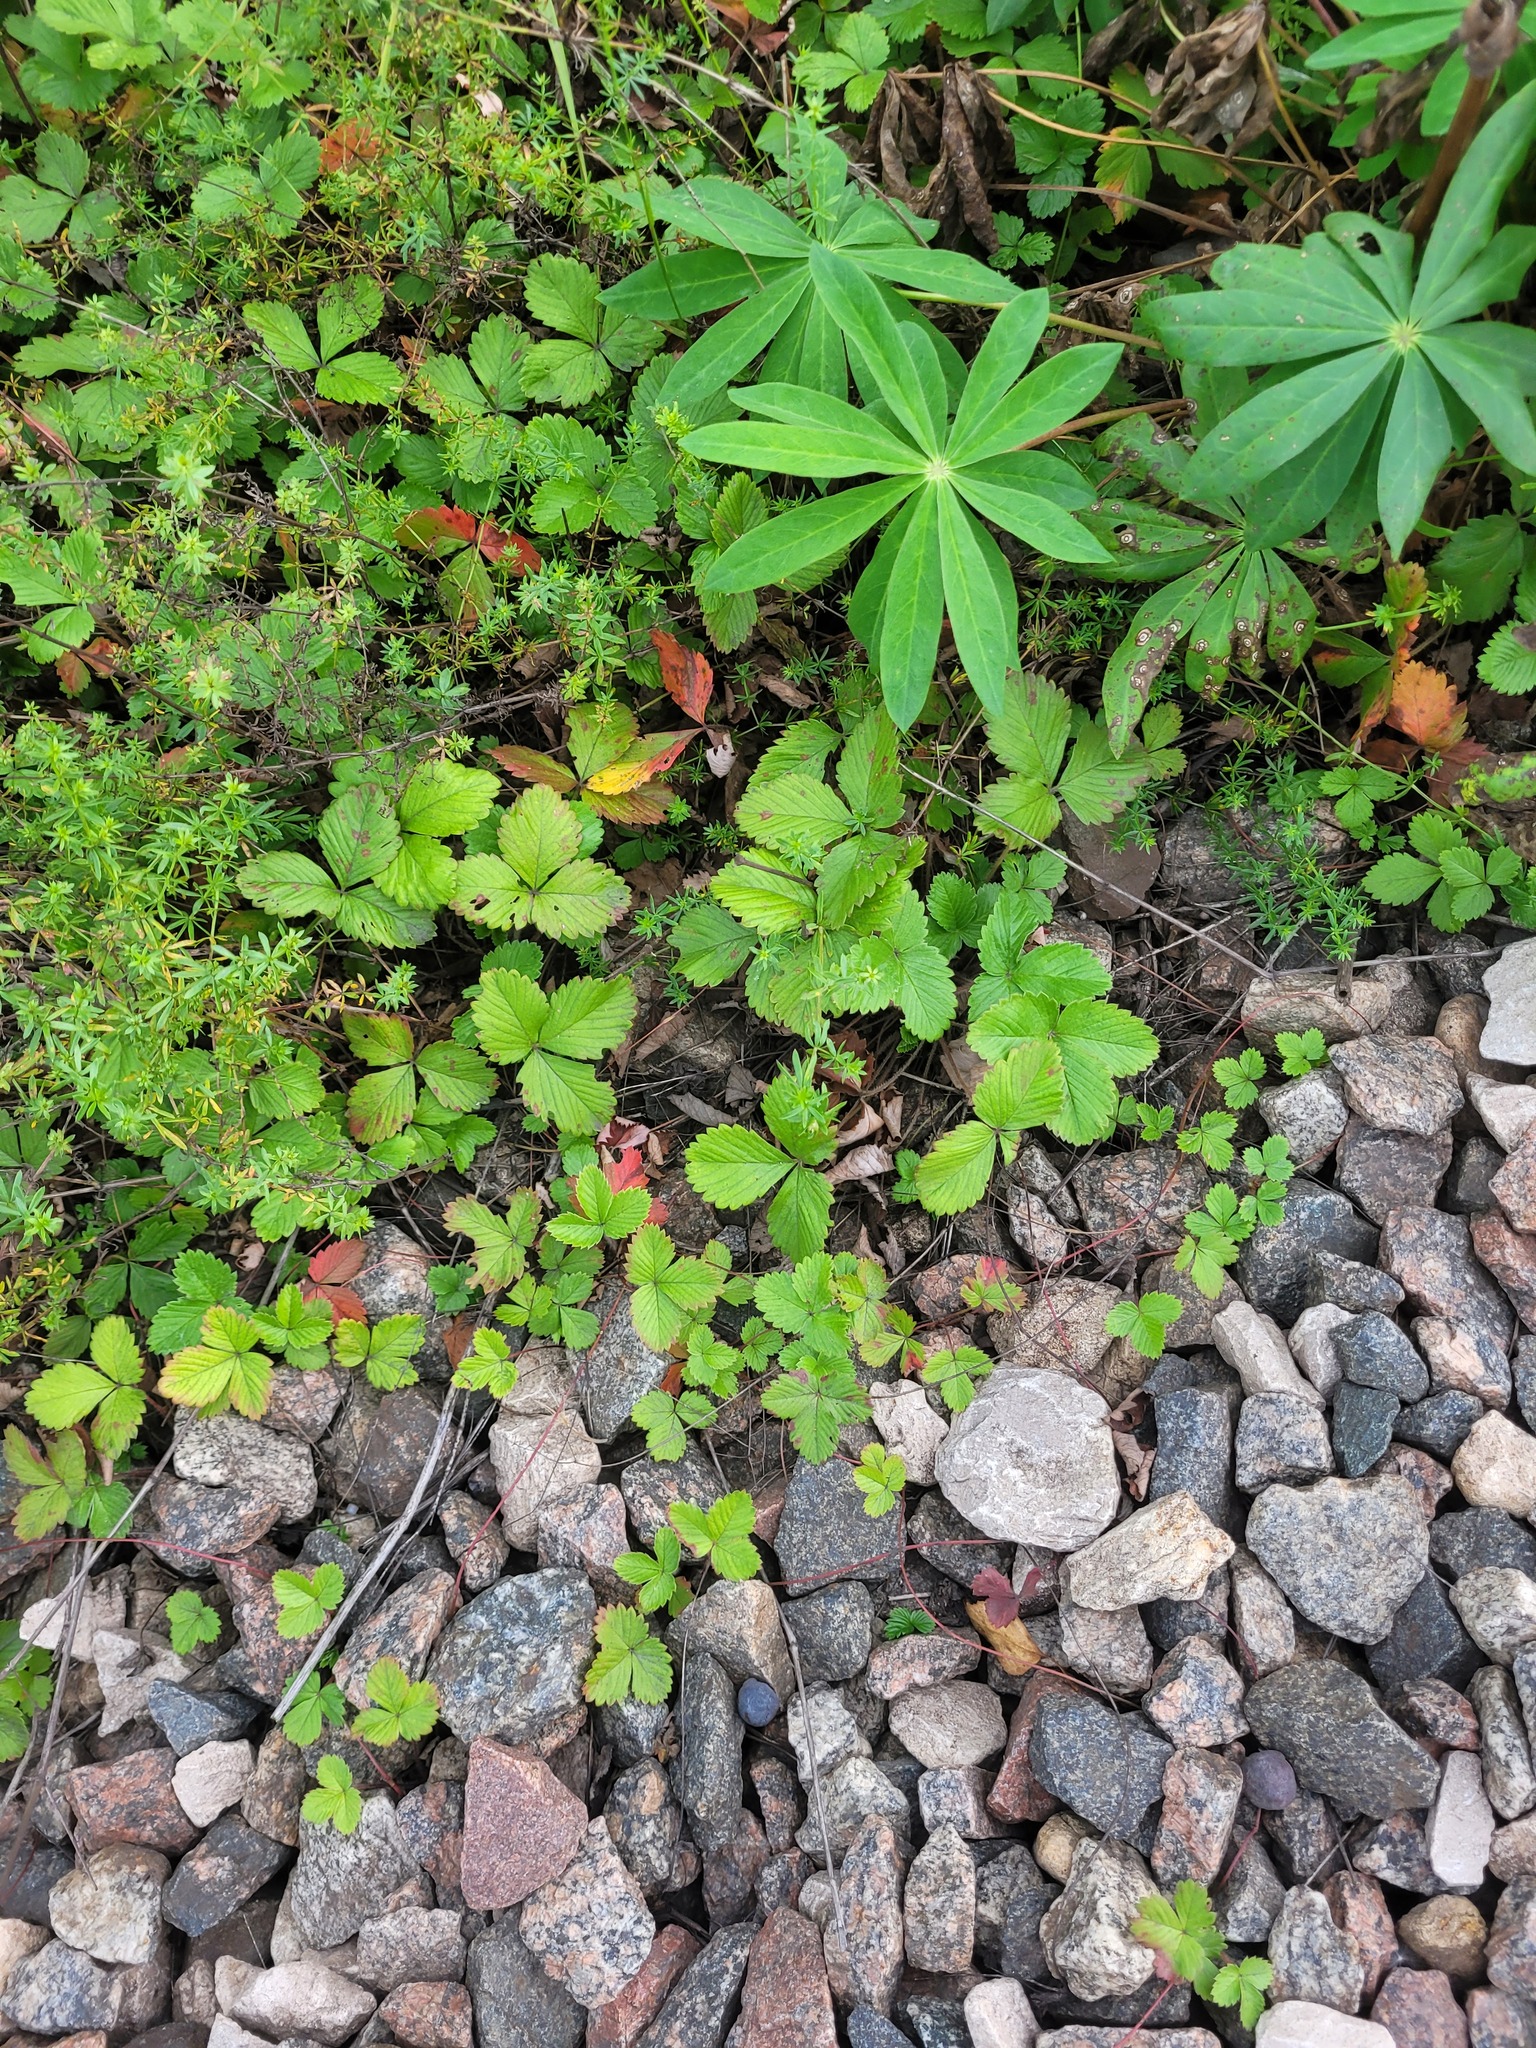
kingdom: Plantae
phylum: Tracheophyta
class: Magnoliopsida
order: Rosales
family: Rosaceae
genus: Fragaria
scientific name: Fragaria vesca
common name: Wild strawberry
